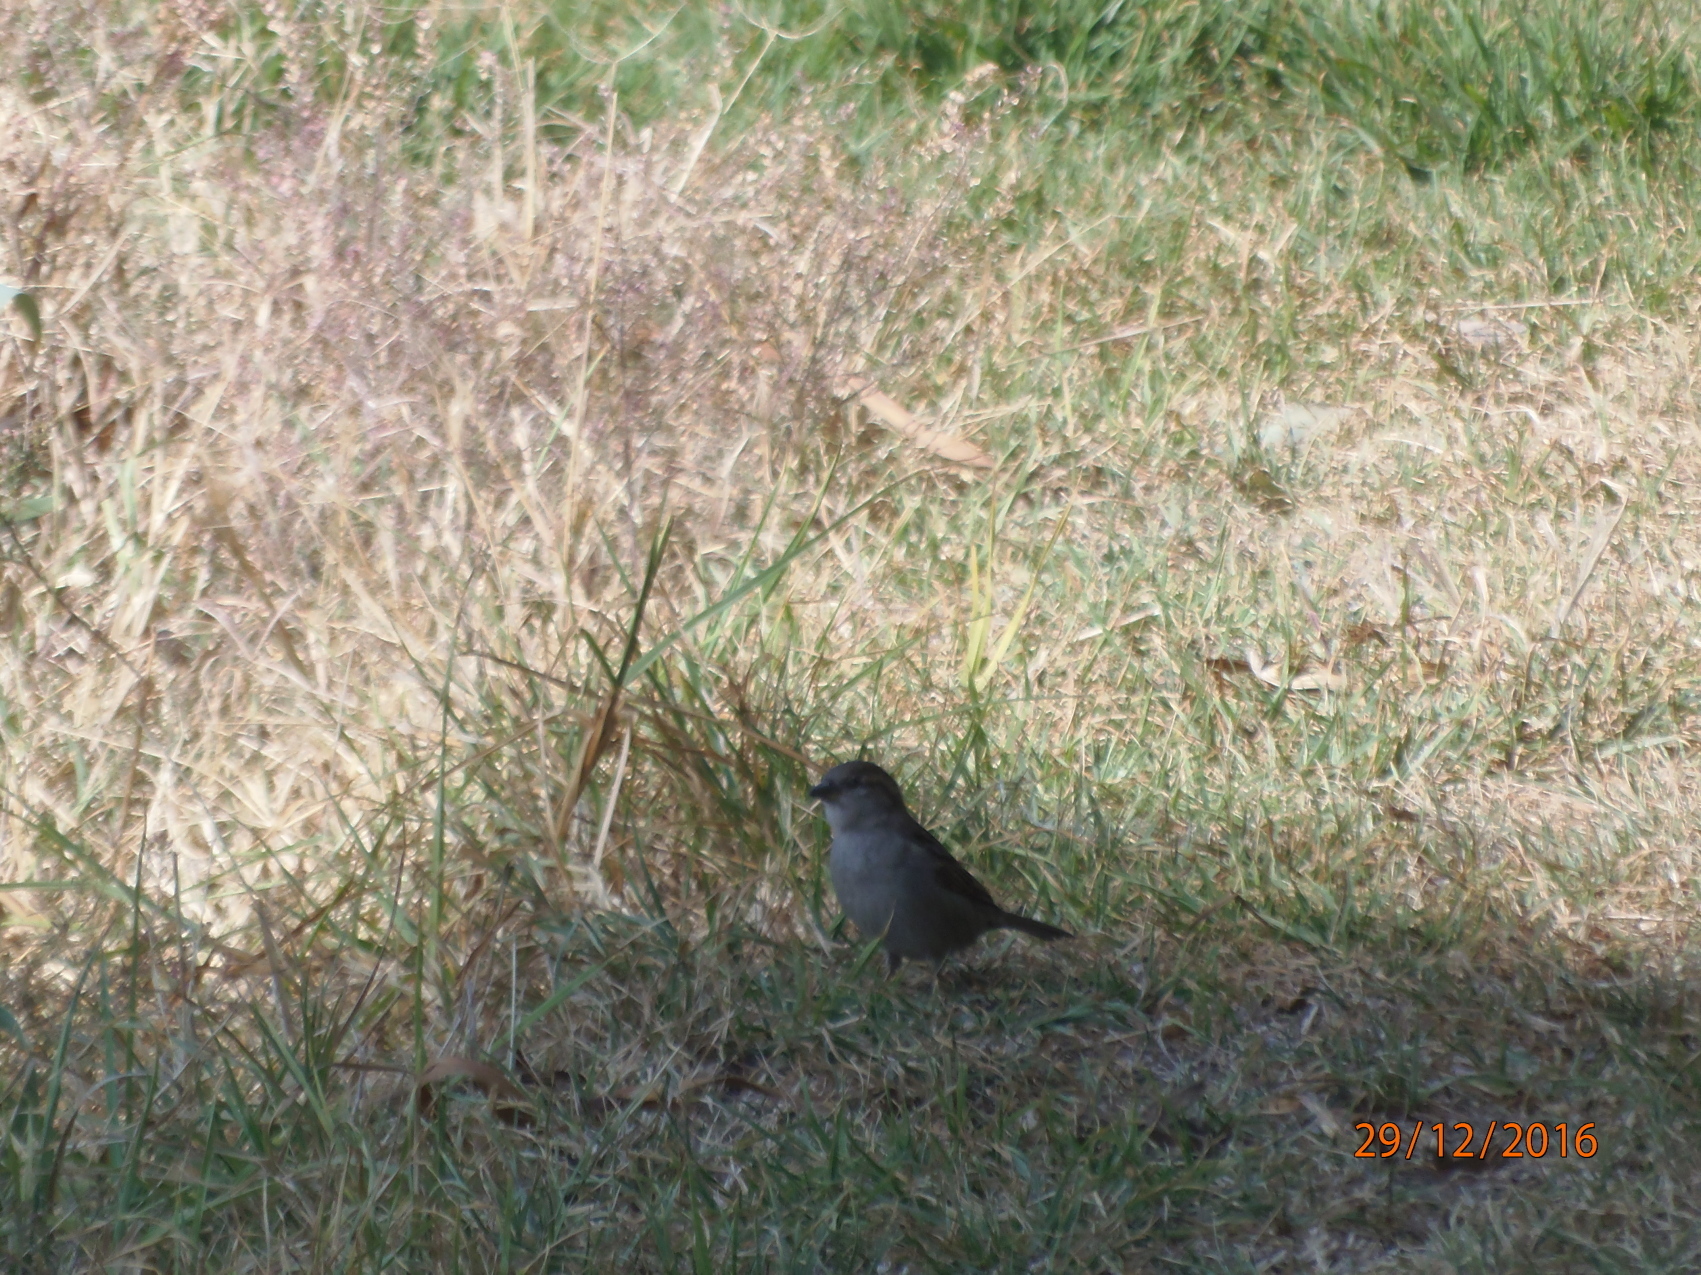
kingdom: Animalia
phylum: Chordata
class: Aves
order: Passeriformes
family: Passeridae
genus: Passer
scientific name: Passer domesticus
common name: House sparrow
